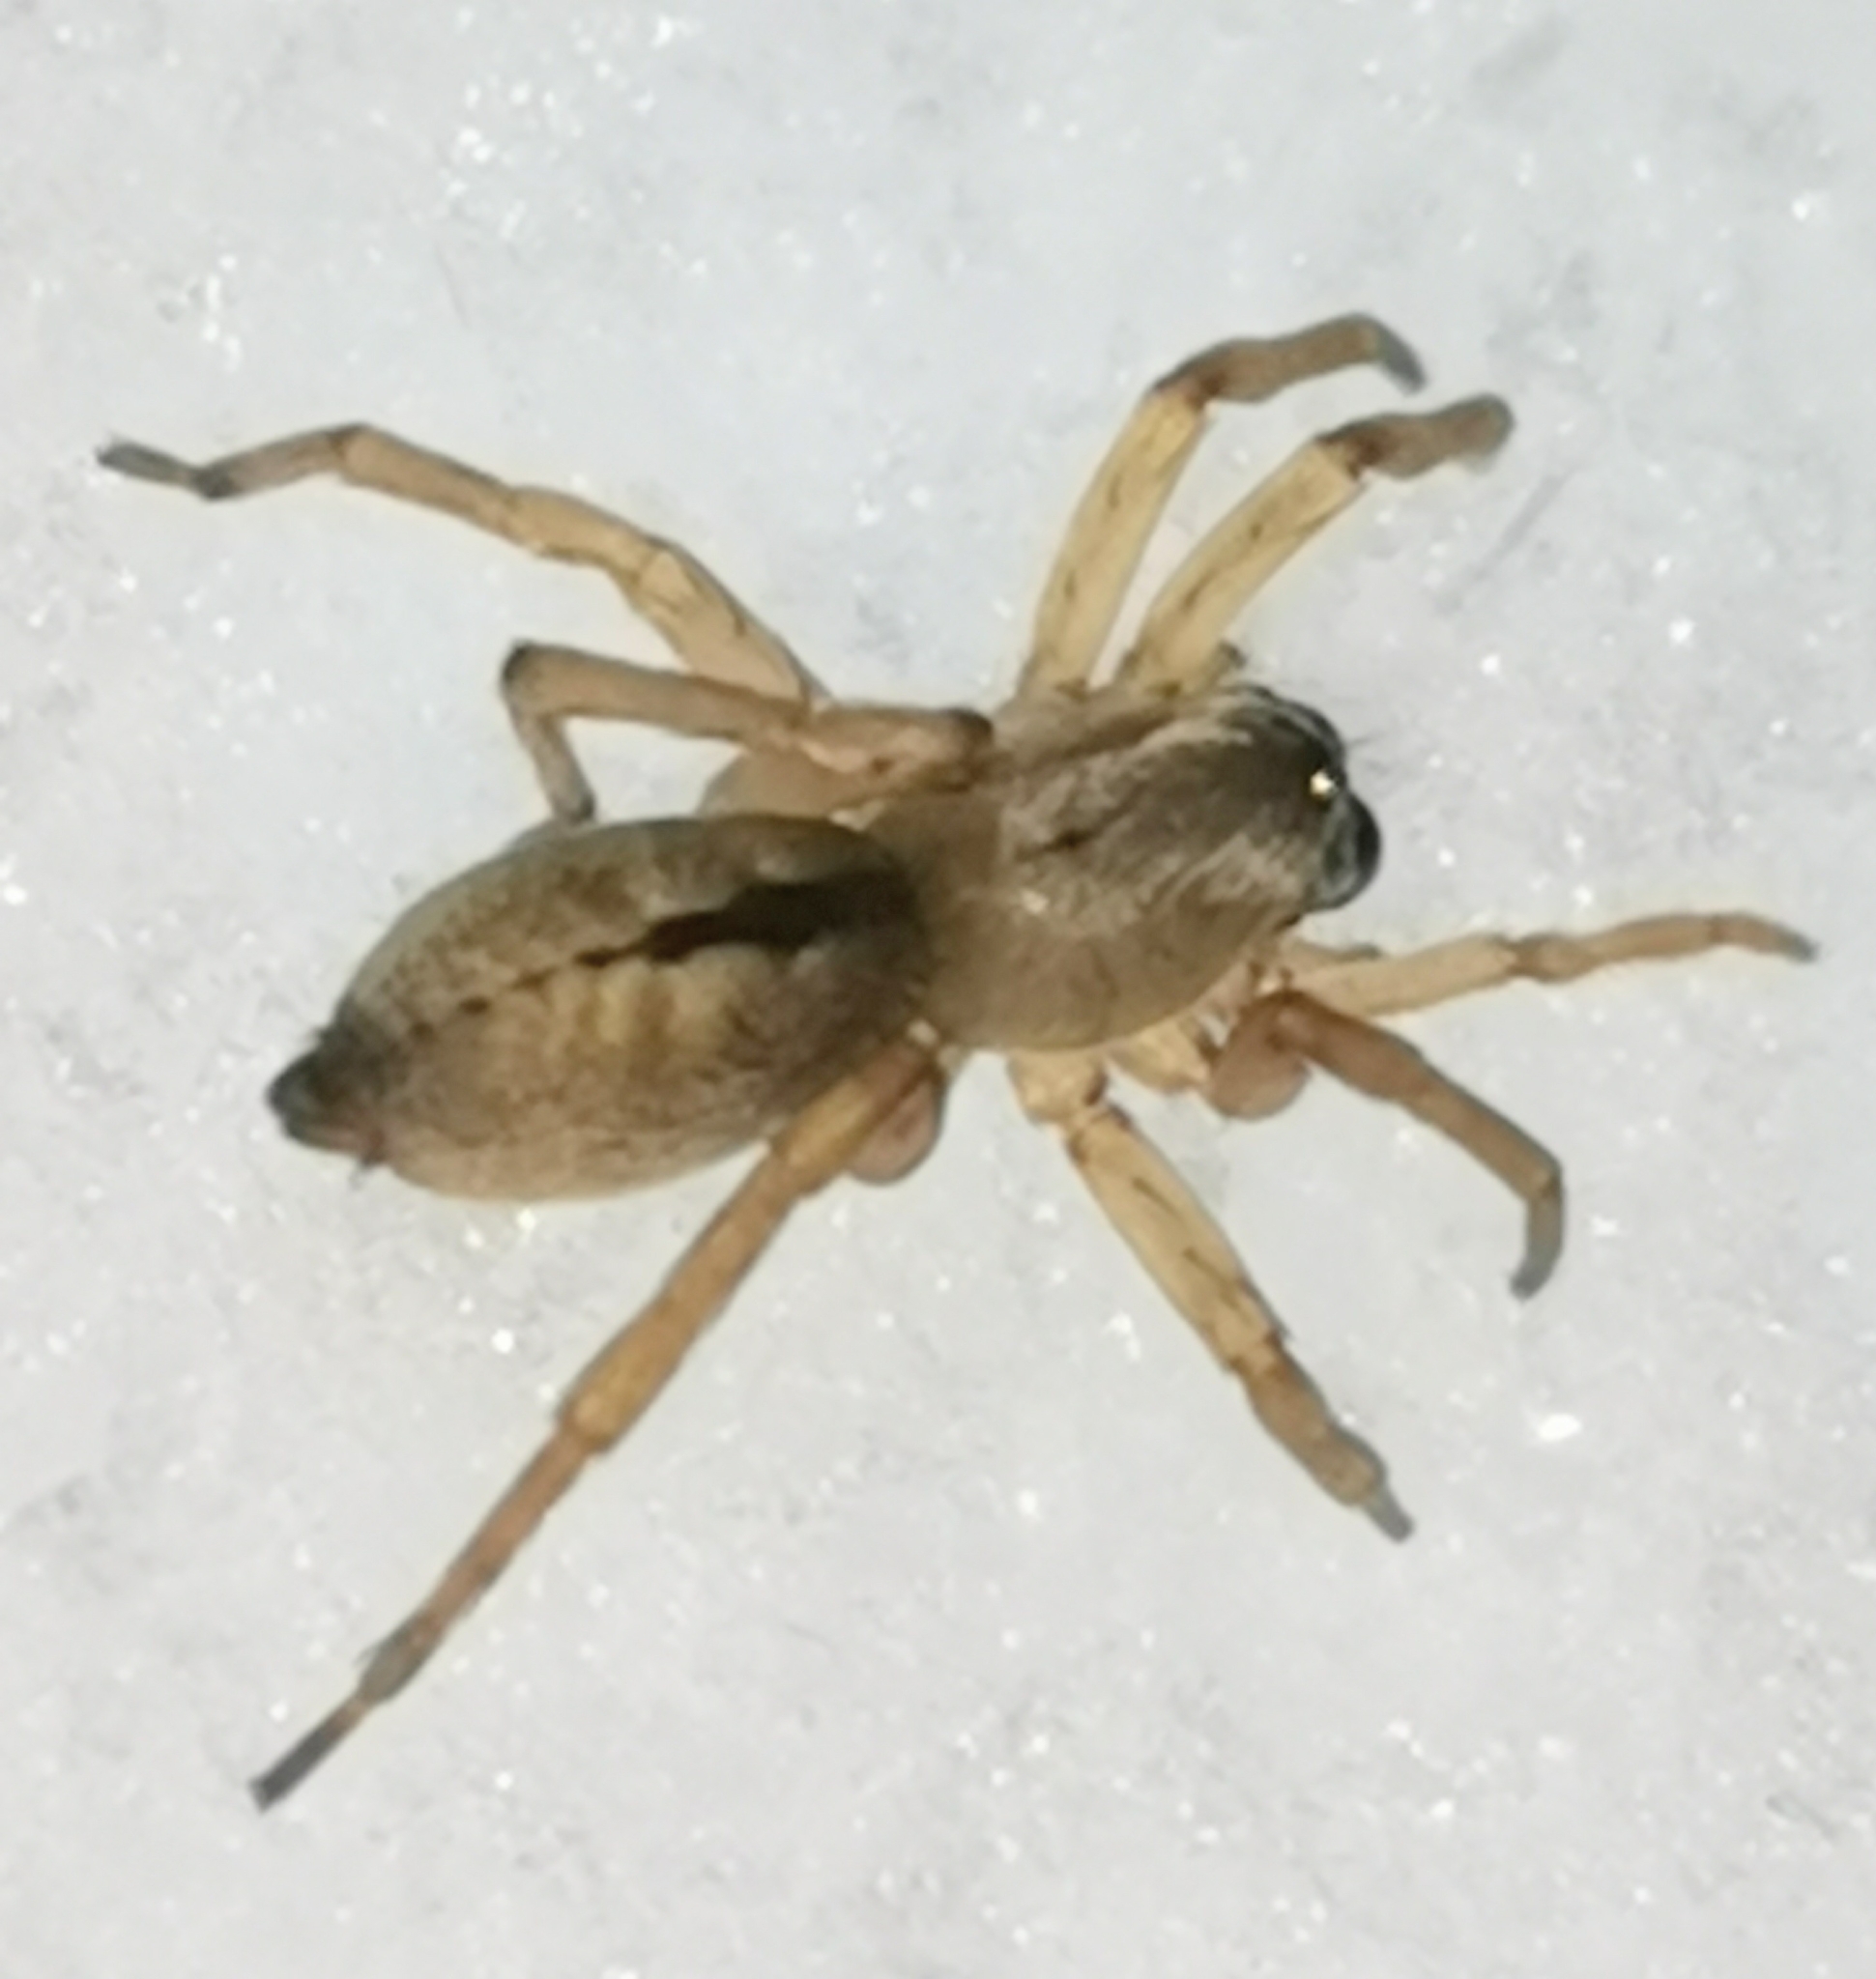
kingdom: Animalia
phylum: Arthropoda
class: Arachnida
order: Araneae
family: Clubionidae
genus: Clubiona
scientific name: Clubiona subsultans
